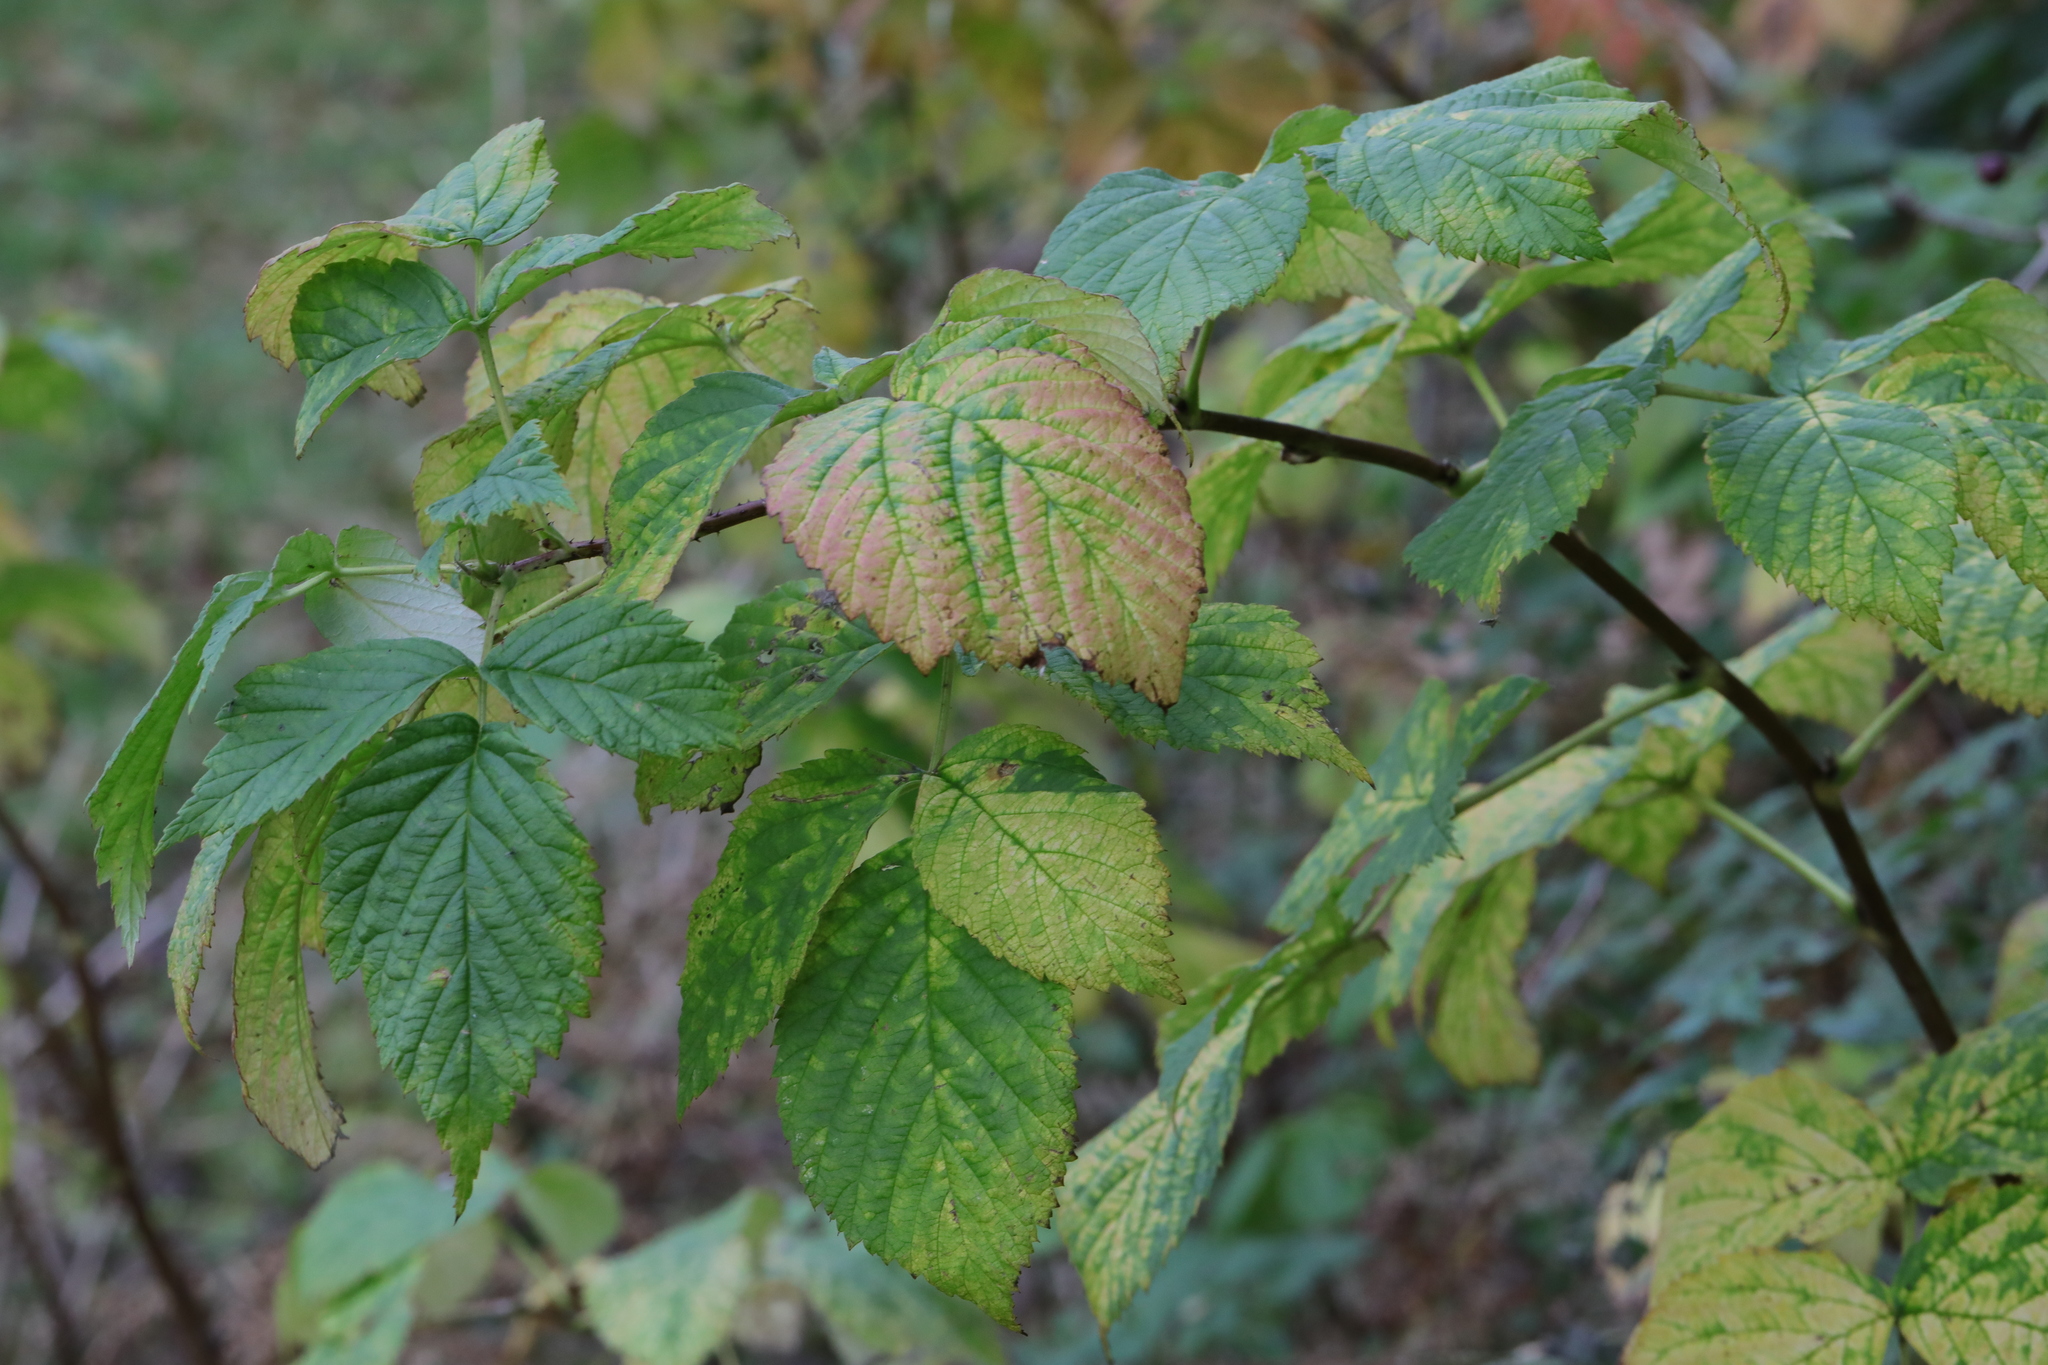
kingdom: Plantae
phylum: Tracheophyta
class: Magnoliopsida
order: Rosales
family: Rosaceae
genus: Rubus
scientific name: Rubus idaeus
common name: Raspberry
